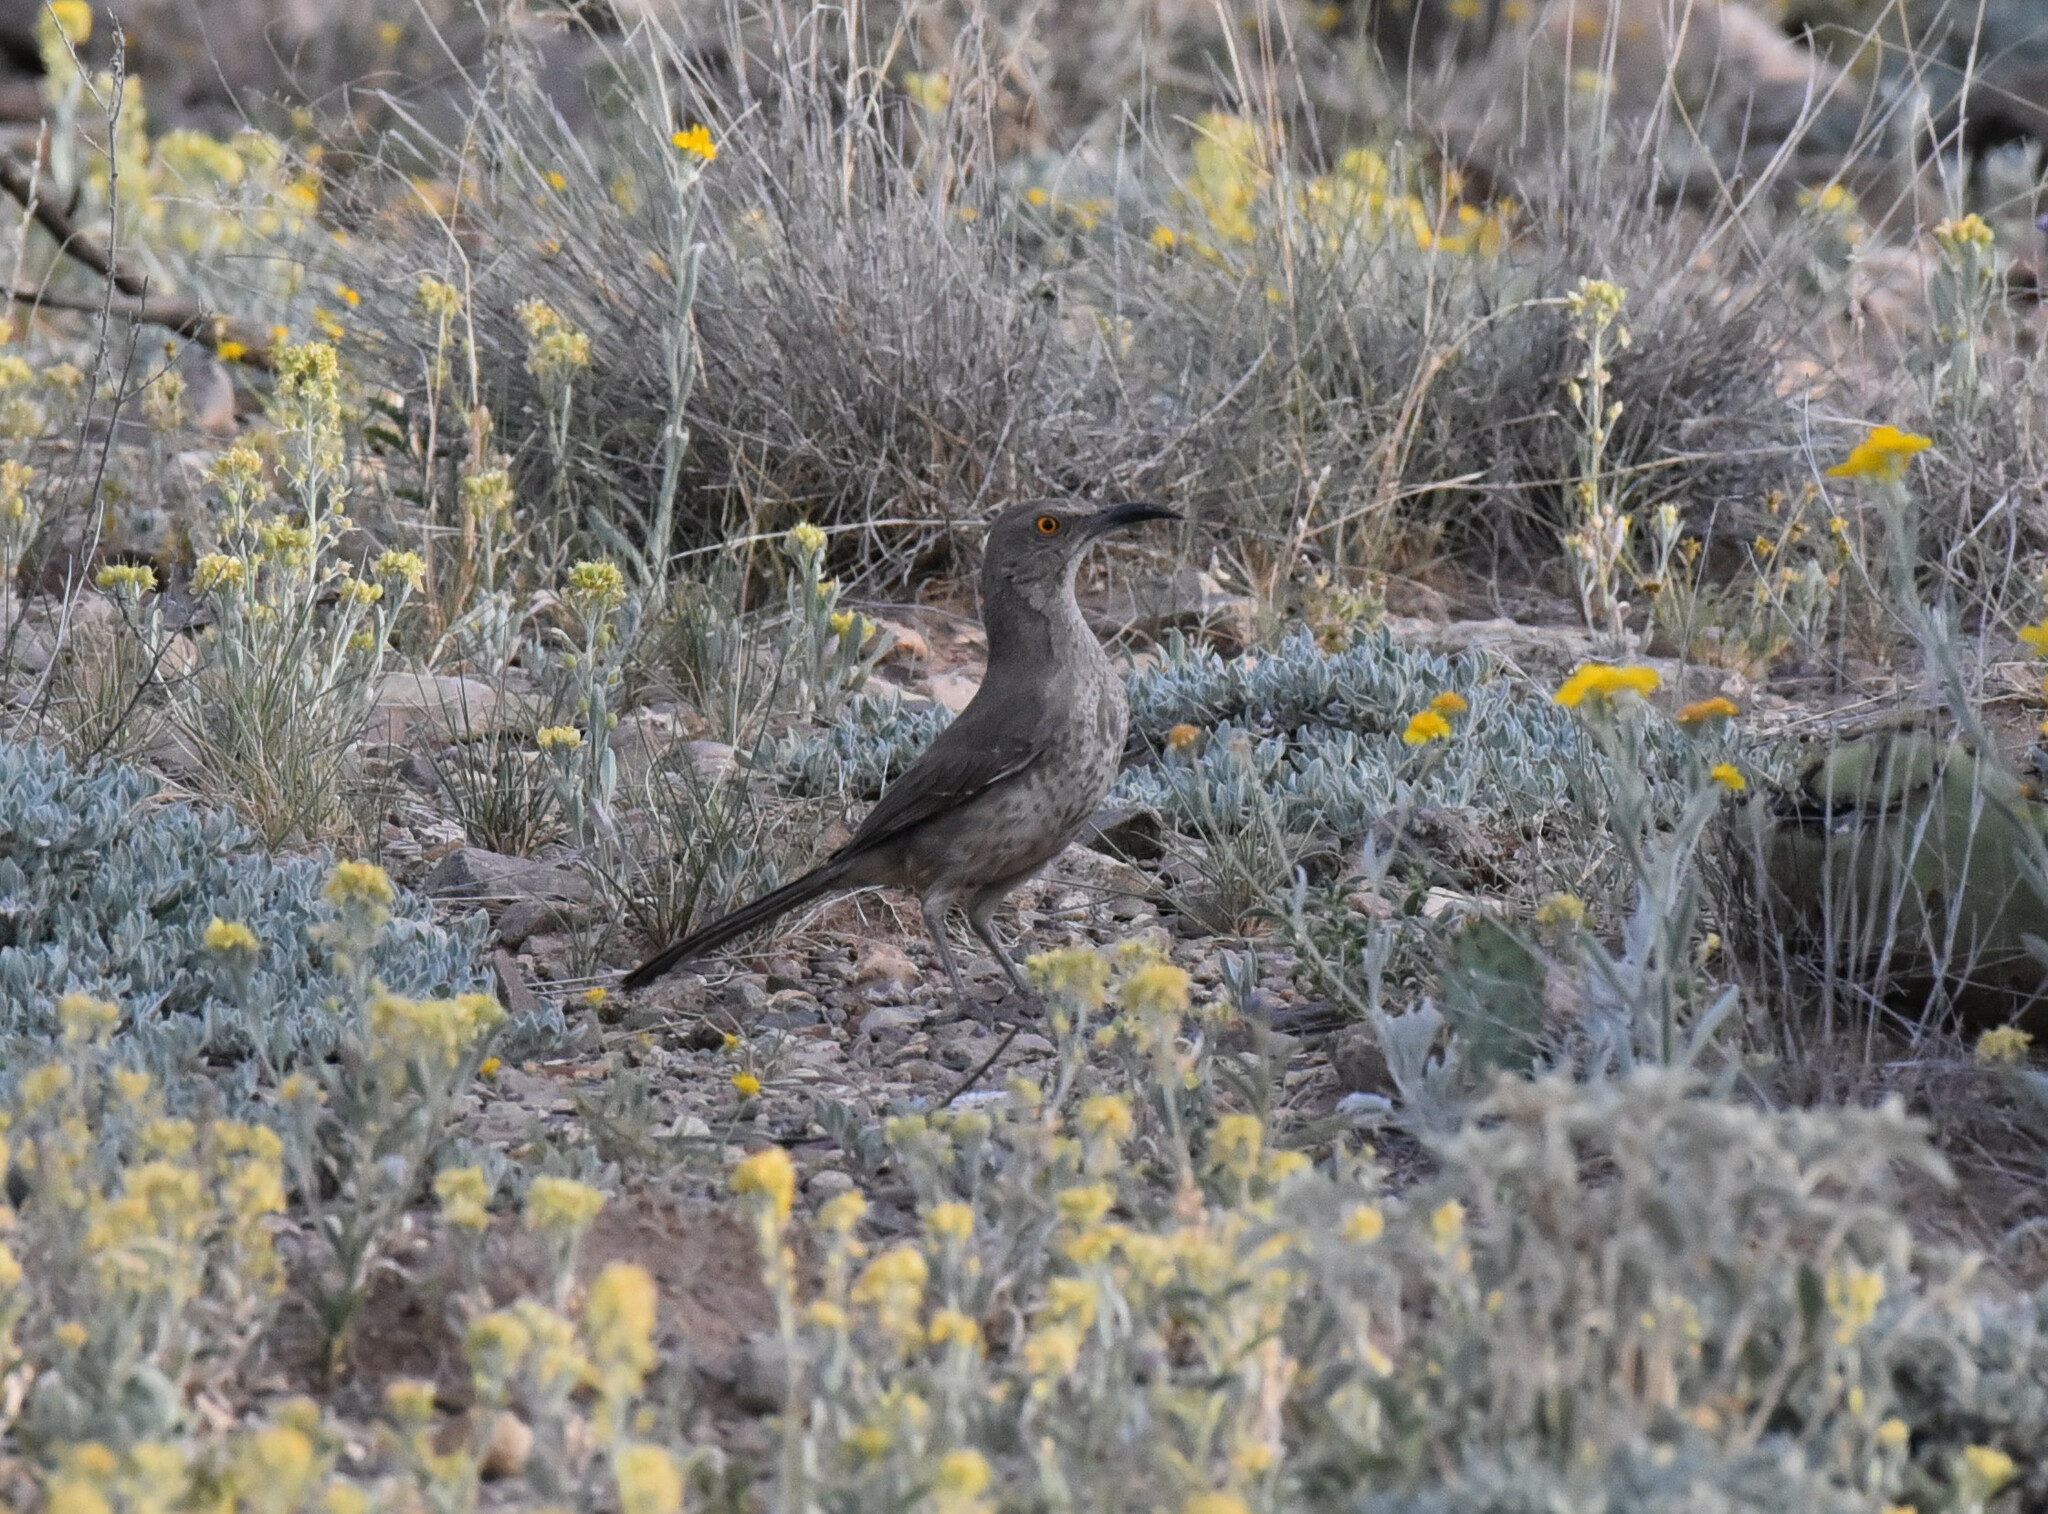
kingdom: Animalia
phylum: Chordata
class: Aves
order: Passeriformes
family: Mimidae
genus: Toxostoma
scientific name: Toxostoma curvirostre
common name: Curve-billed thrasher
